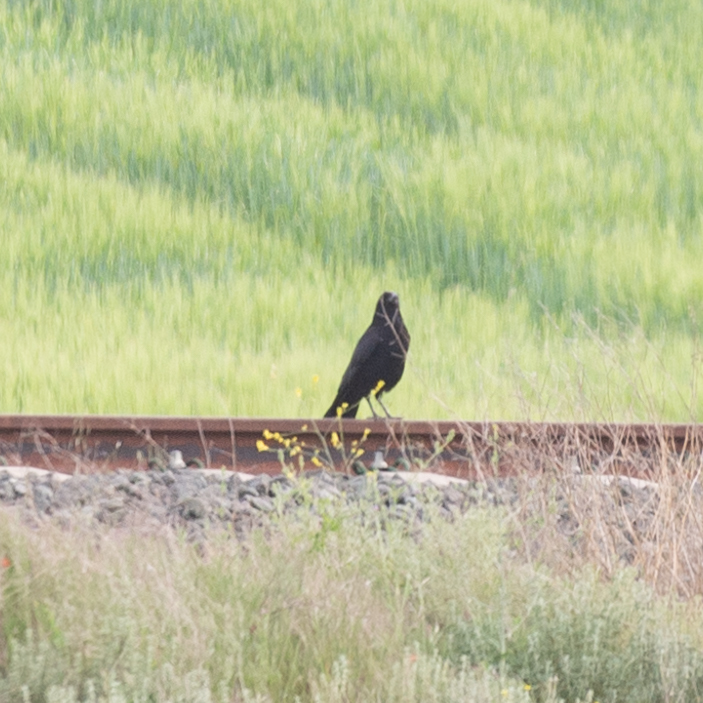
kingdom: Animalia
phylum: Chordata
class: Aves
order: Passeriformes
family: Corvidae
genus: Corvus
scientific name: Corvus corone
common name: Carrion crow
